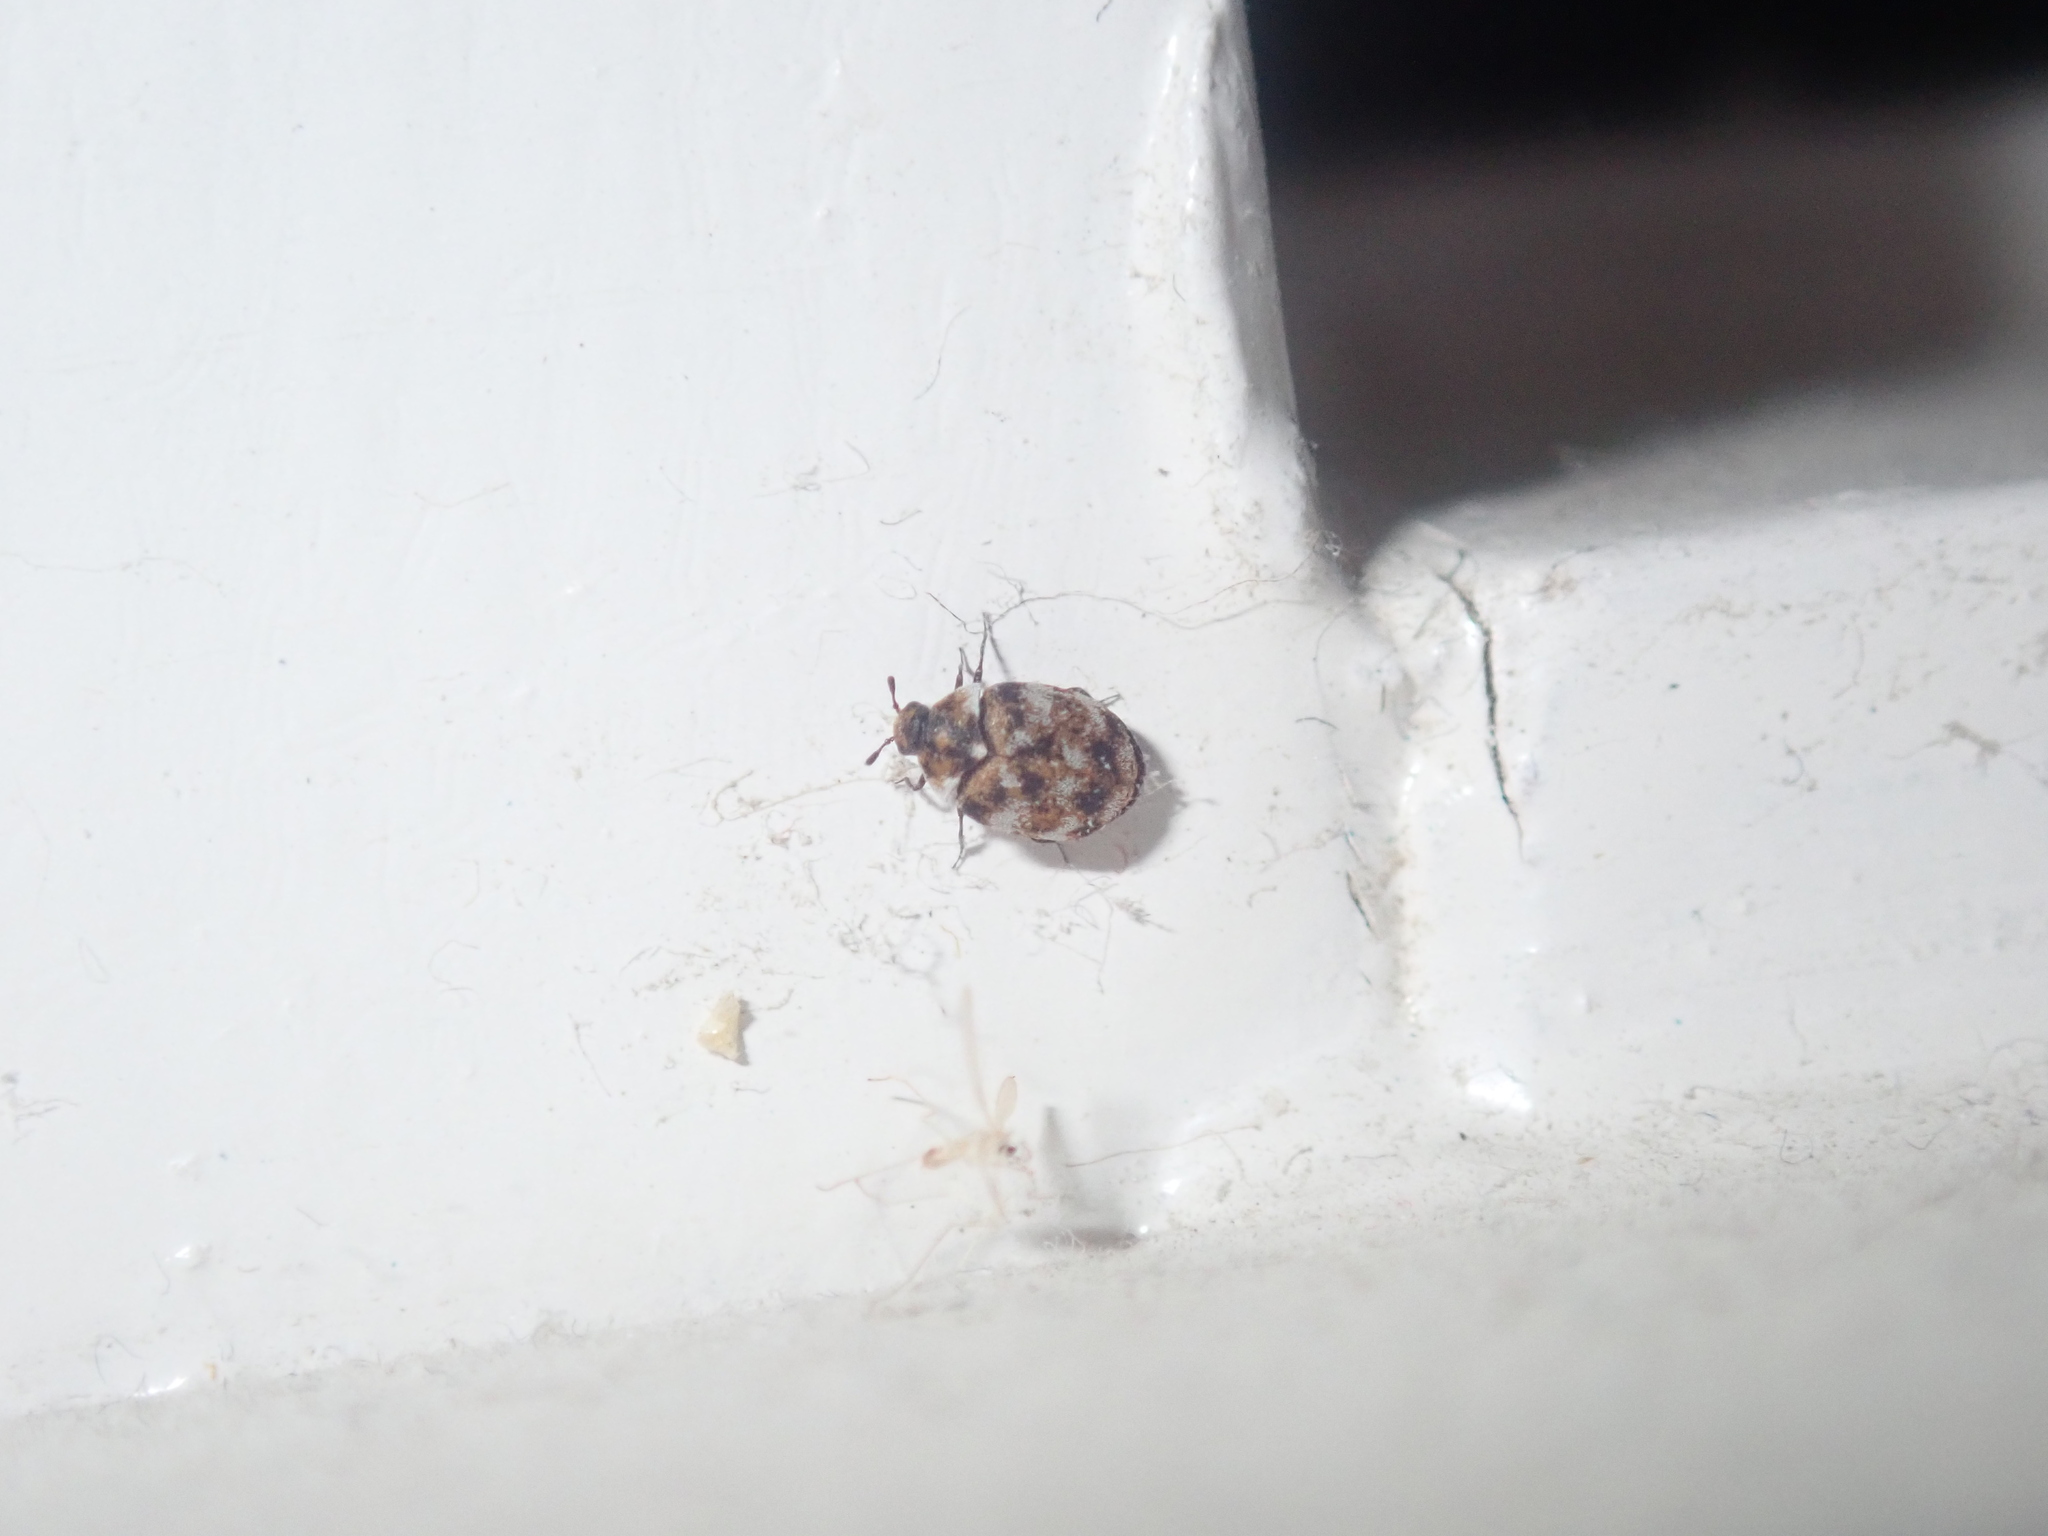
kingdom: Animalia
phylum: Arthropoda
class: Insecta
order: Coleoptera
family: Dermestidae
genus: Anthrenus
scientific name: Anthrenus verbasci
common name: Varied carpet beetle
